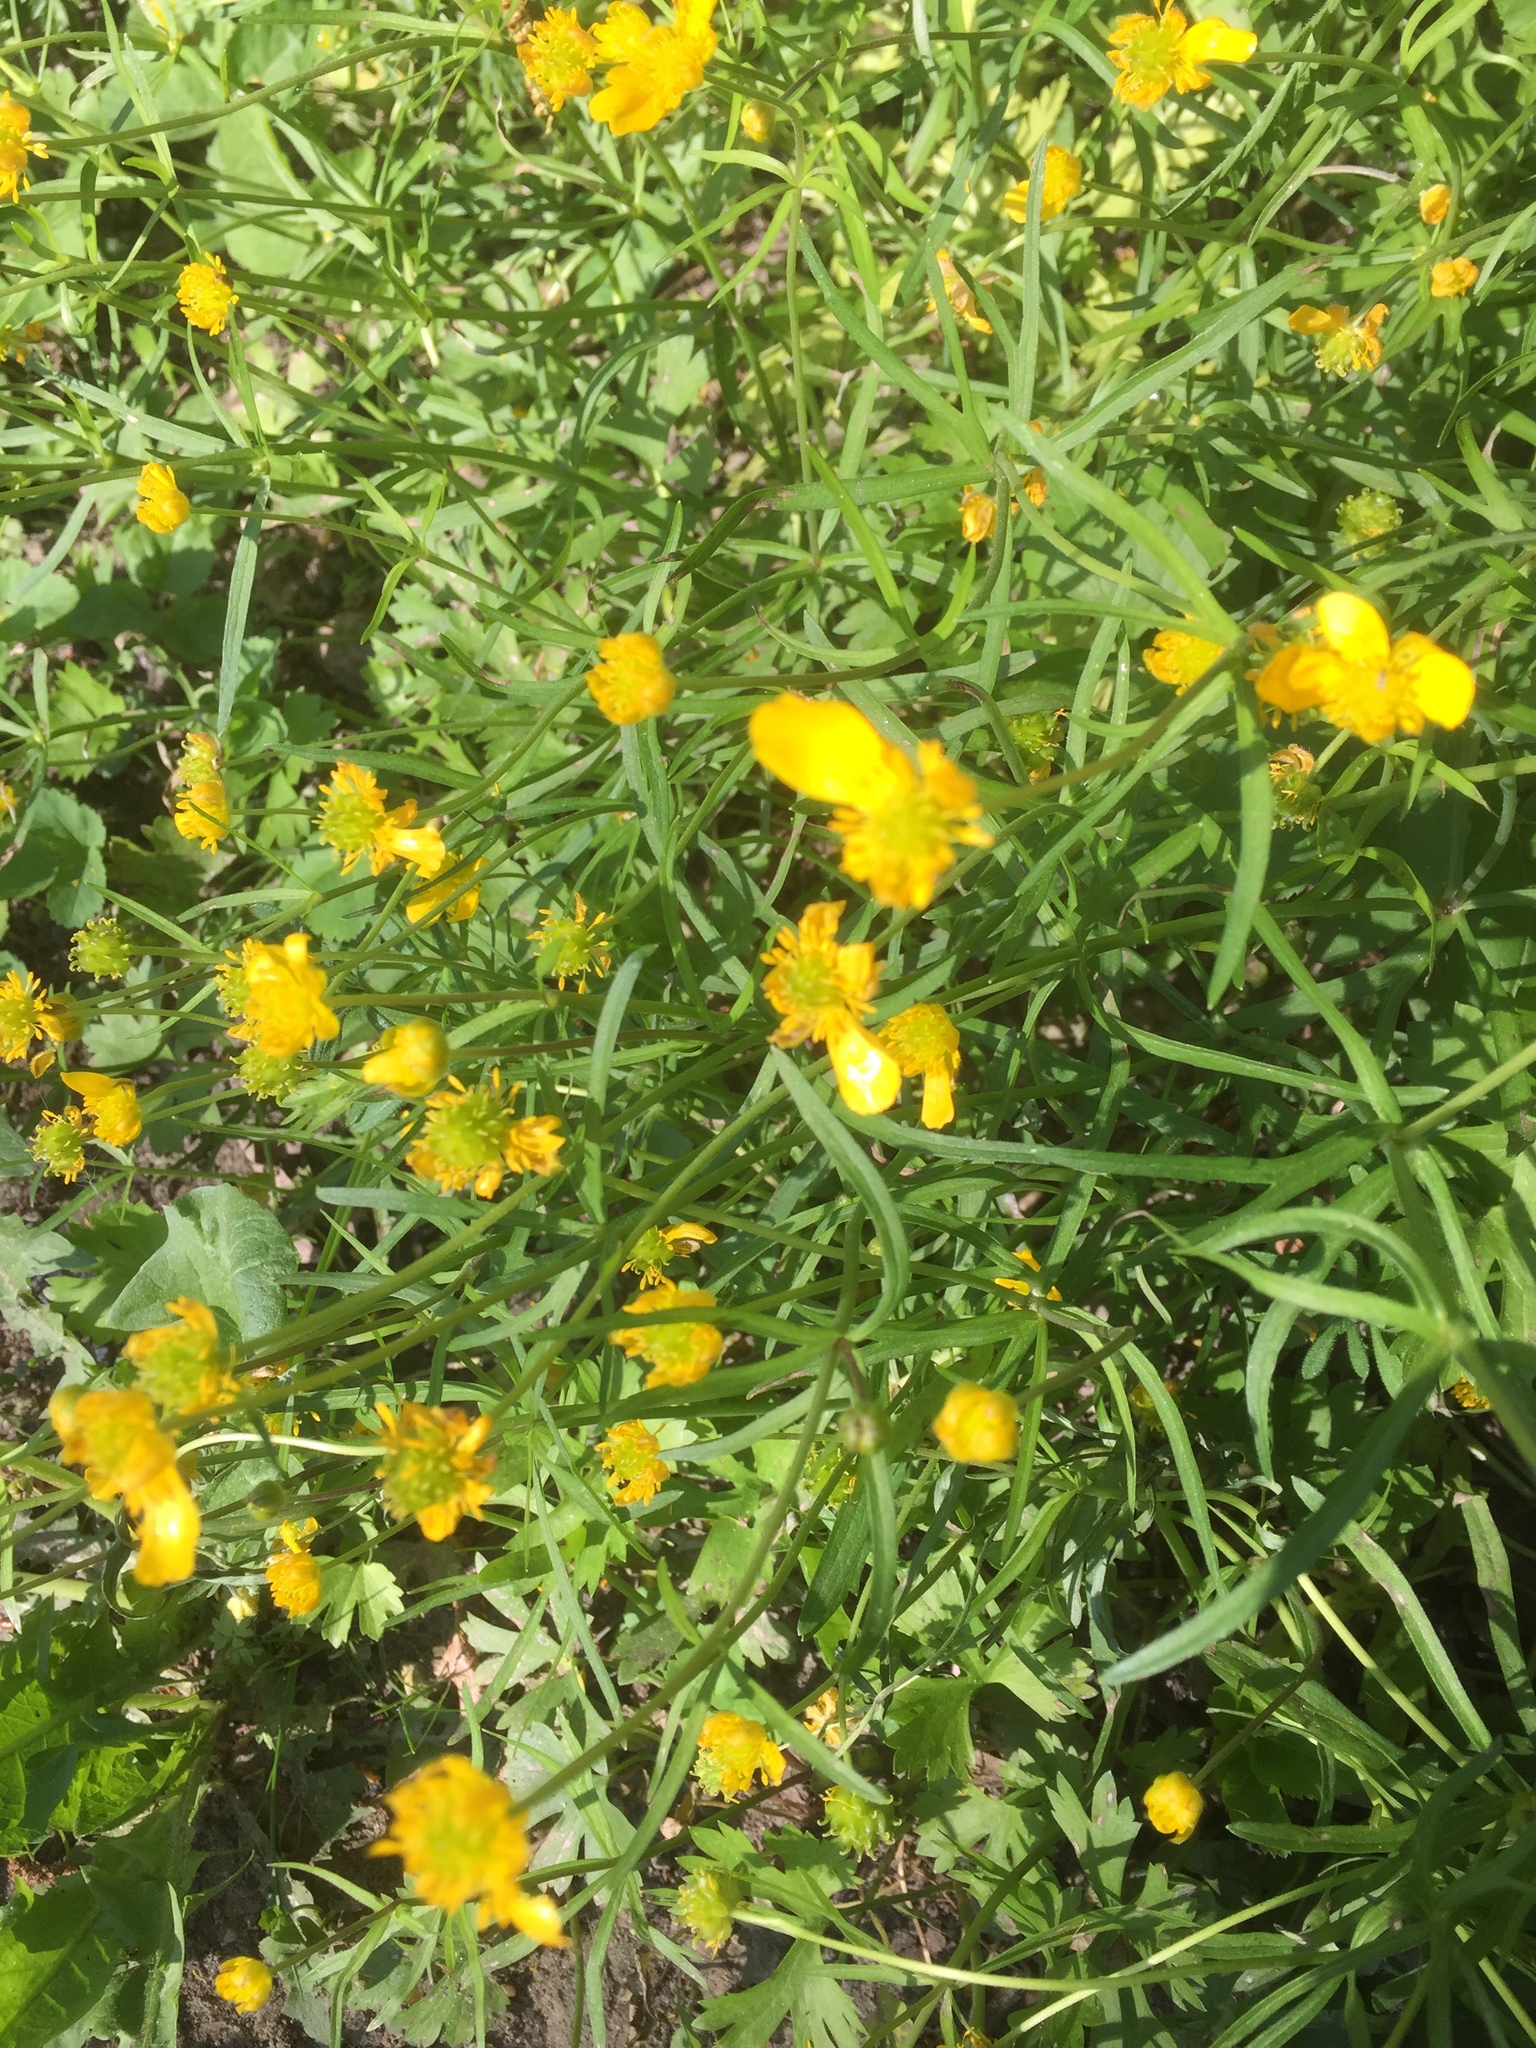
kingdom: Plantae
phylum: Tracheophyta
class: Magnoliopsida
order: Ranunculales
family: Ranunculaceae
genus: Ranunculus
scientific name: Ranunculus auricomus
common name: Goldilocks buttercup
